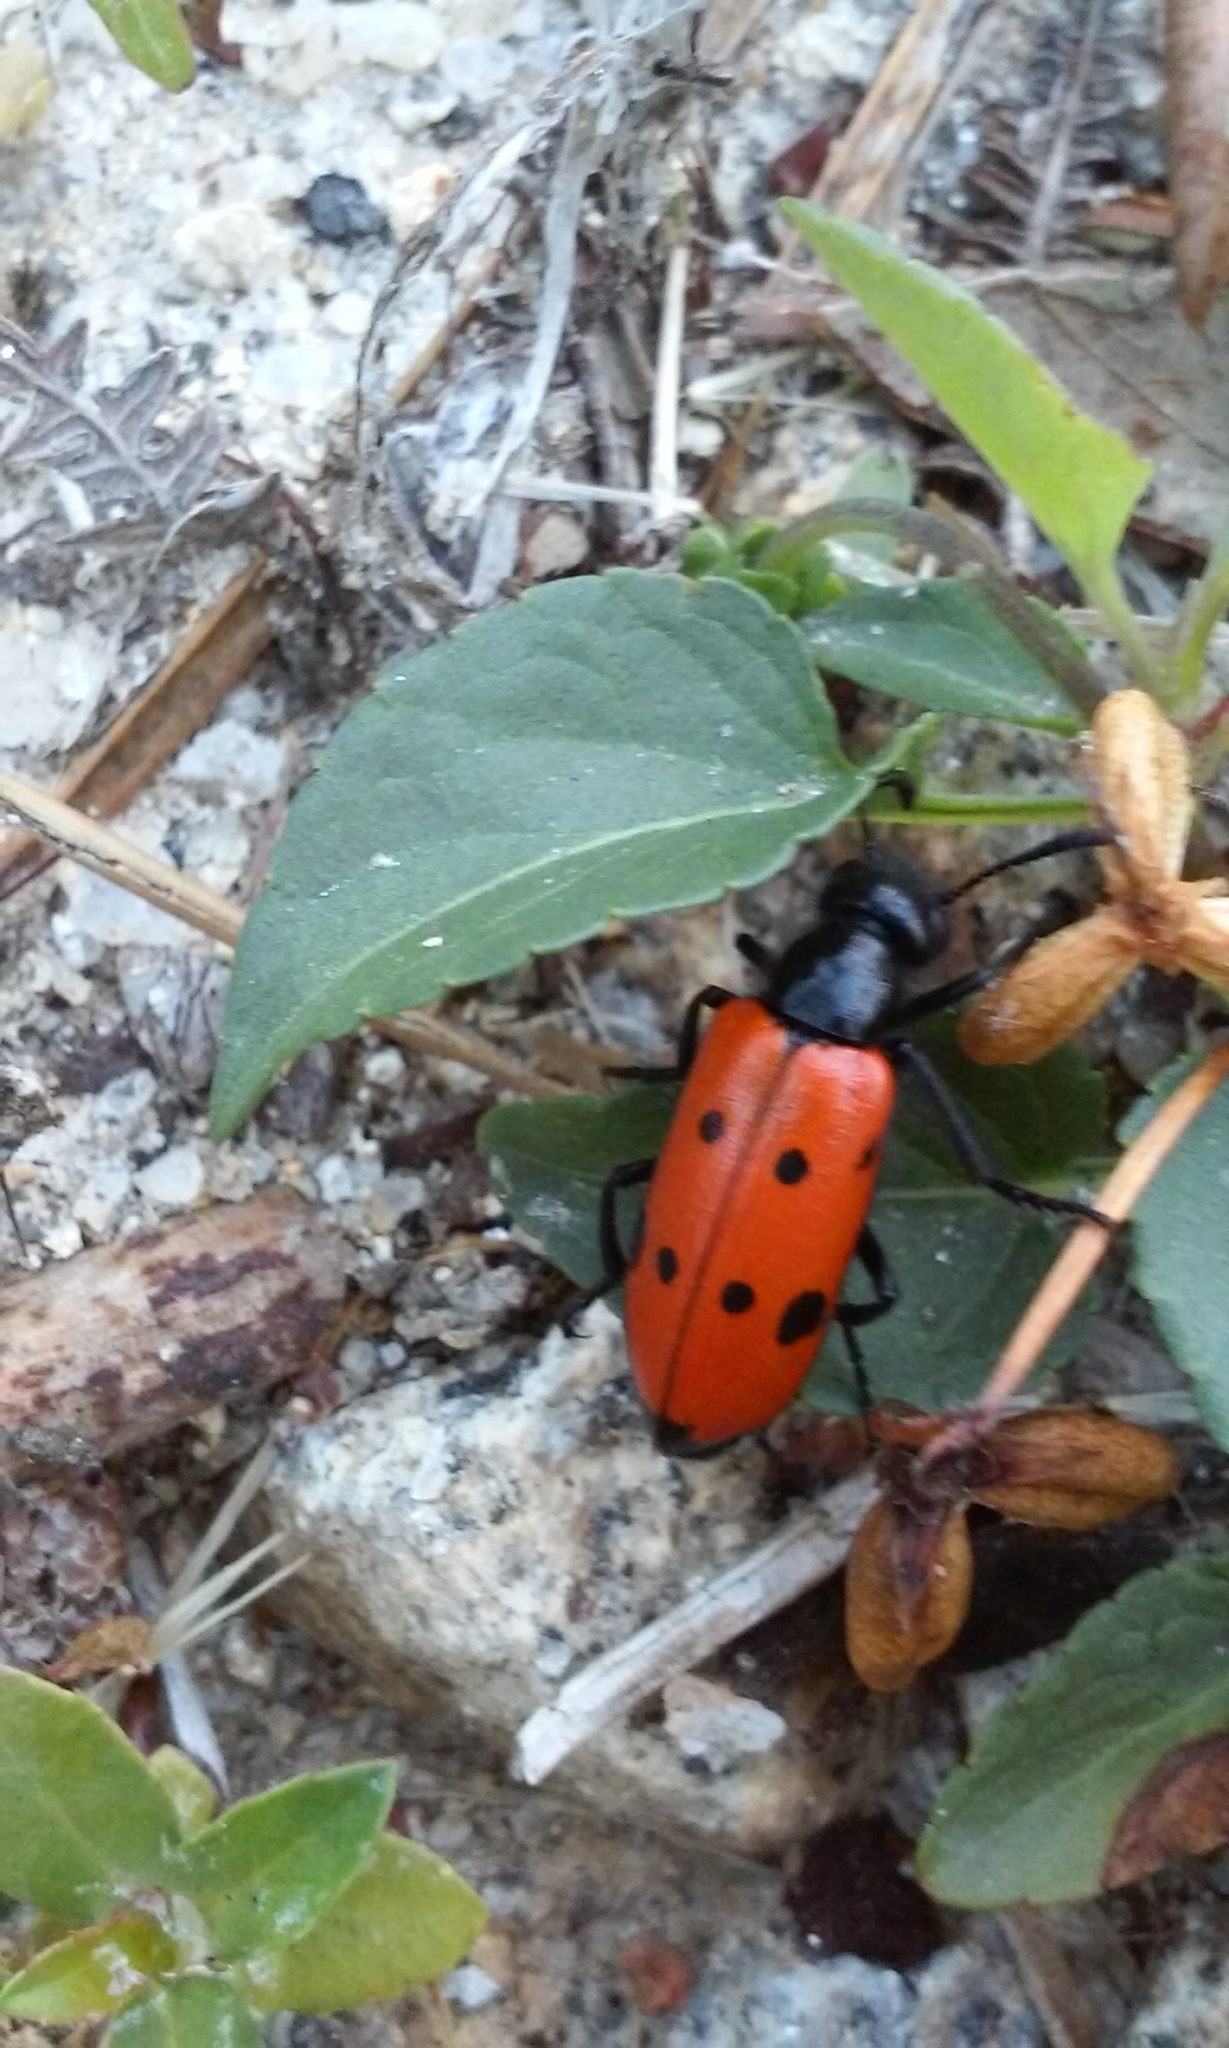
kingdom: Animalia
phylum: Arthropoda
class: Insecta
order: Coleoptera
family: Meloidae
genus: Mylabris
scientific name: Mylabris quadripunctata
